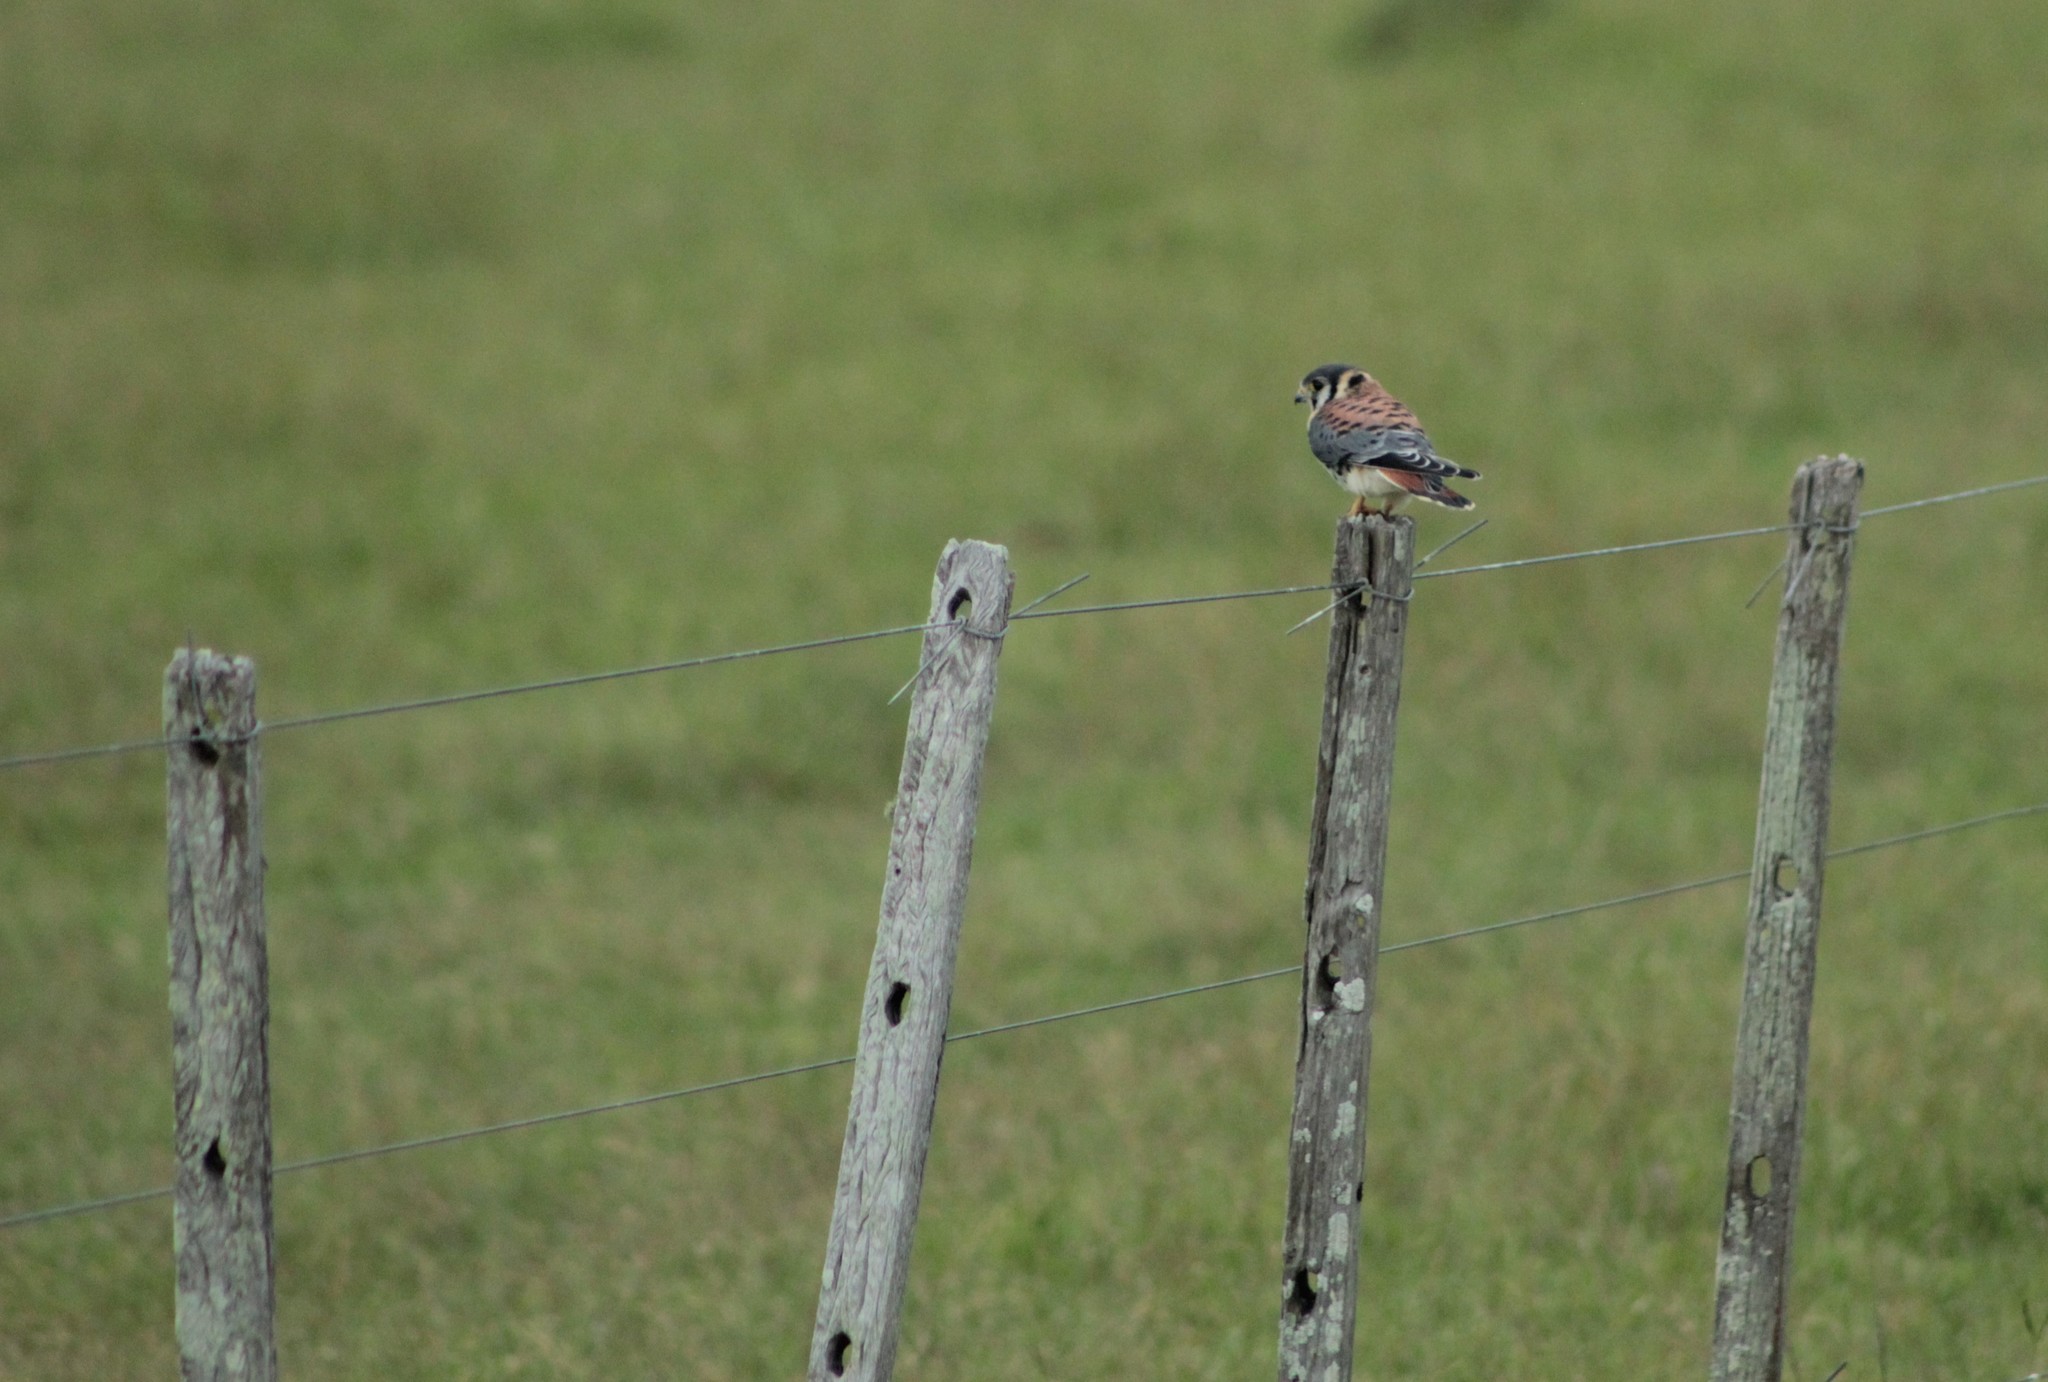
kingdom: Animalia
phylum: Chordata
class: Aves
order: Falconiformes
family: Falconidae
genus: Falco
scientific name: Falco sparverius
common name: American kestrel
